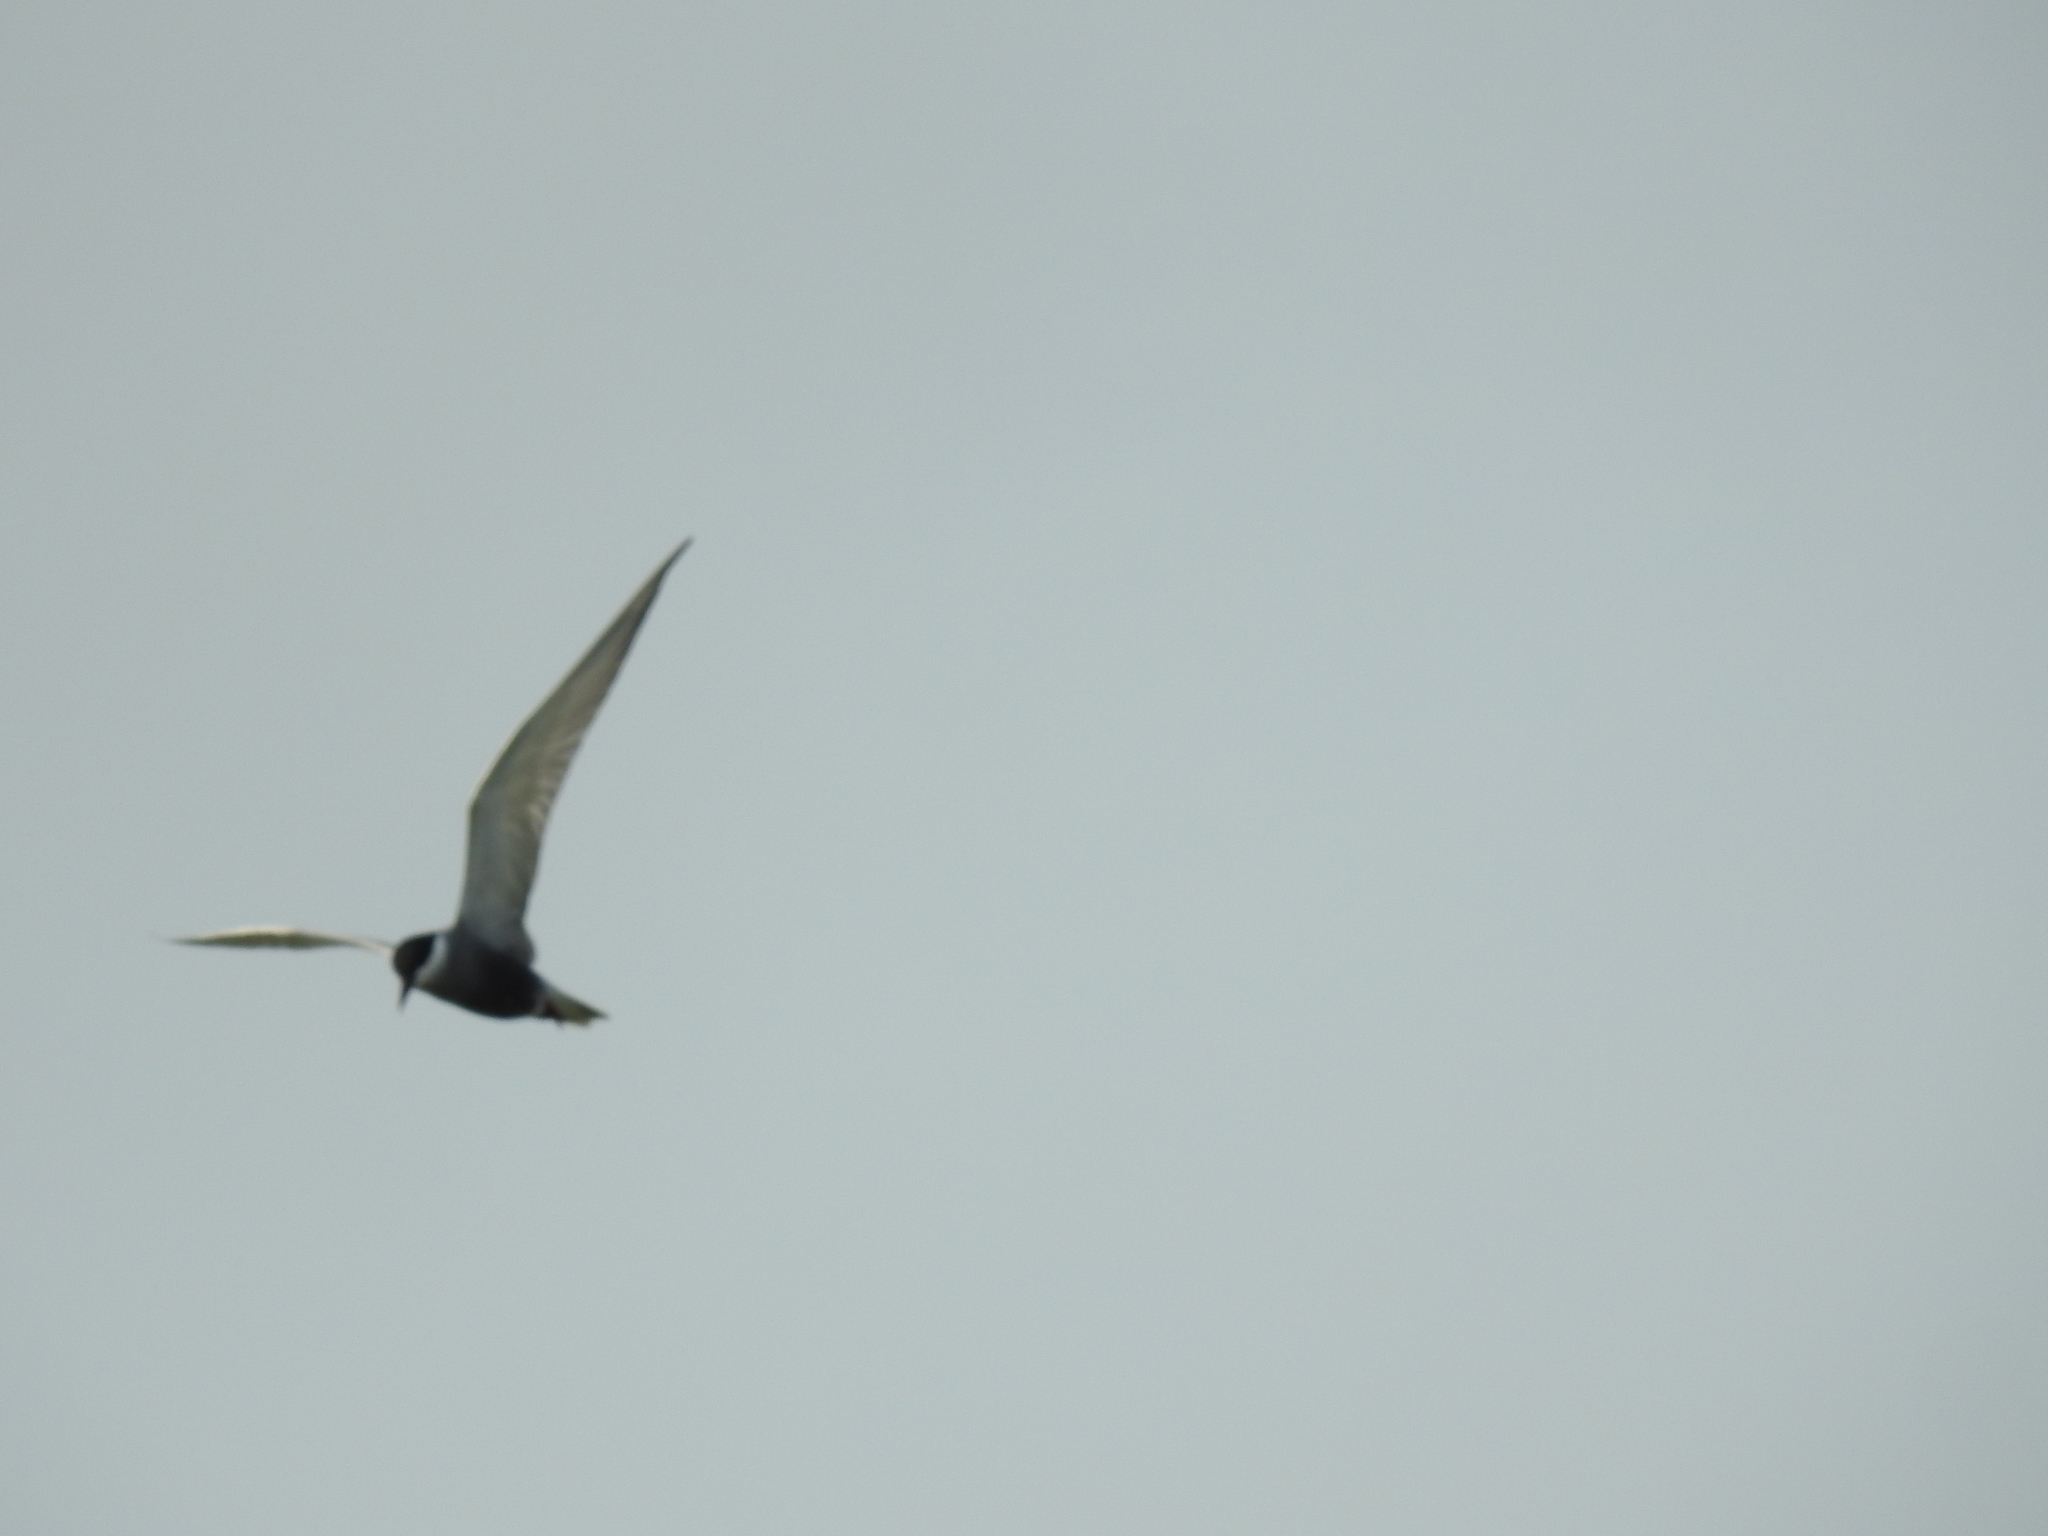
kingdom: Animalia
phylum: Chordata
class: Aves
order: Charadriiformes
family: Laridae
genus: Chlidonias
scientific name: Chlidonias hybrida
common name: Whiskered tern
